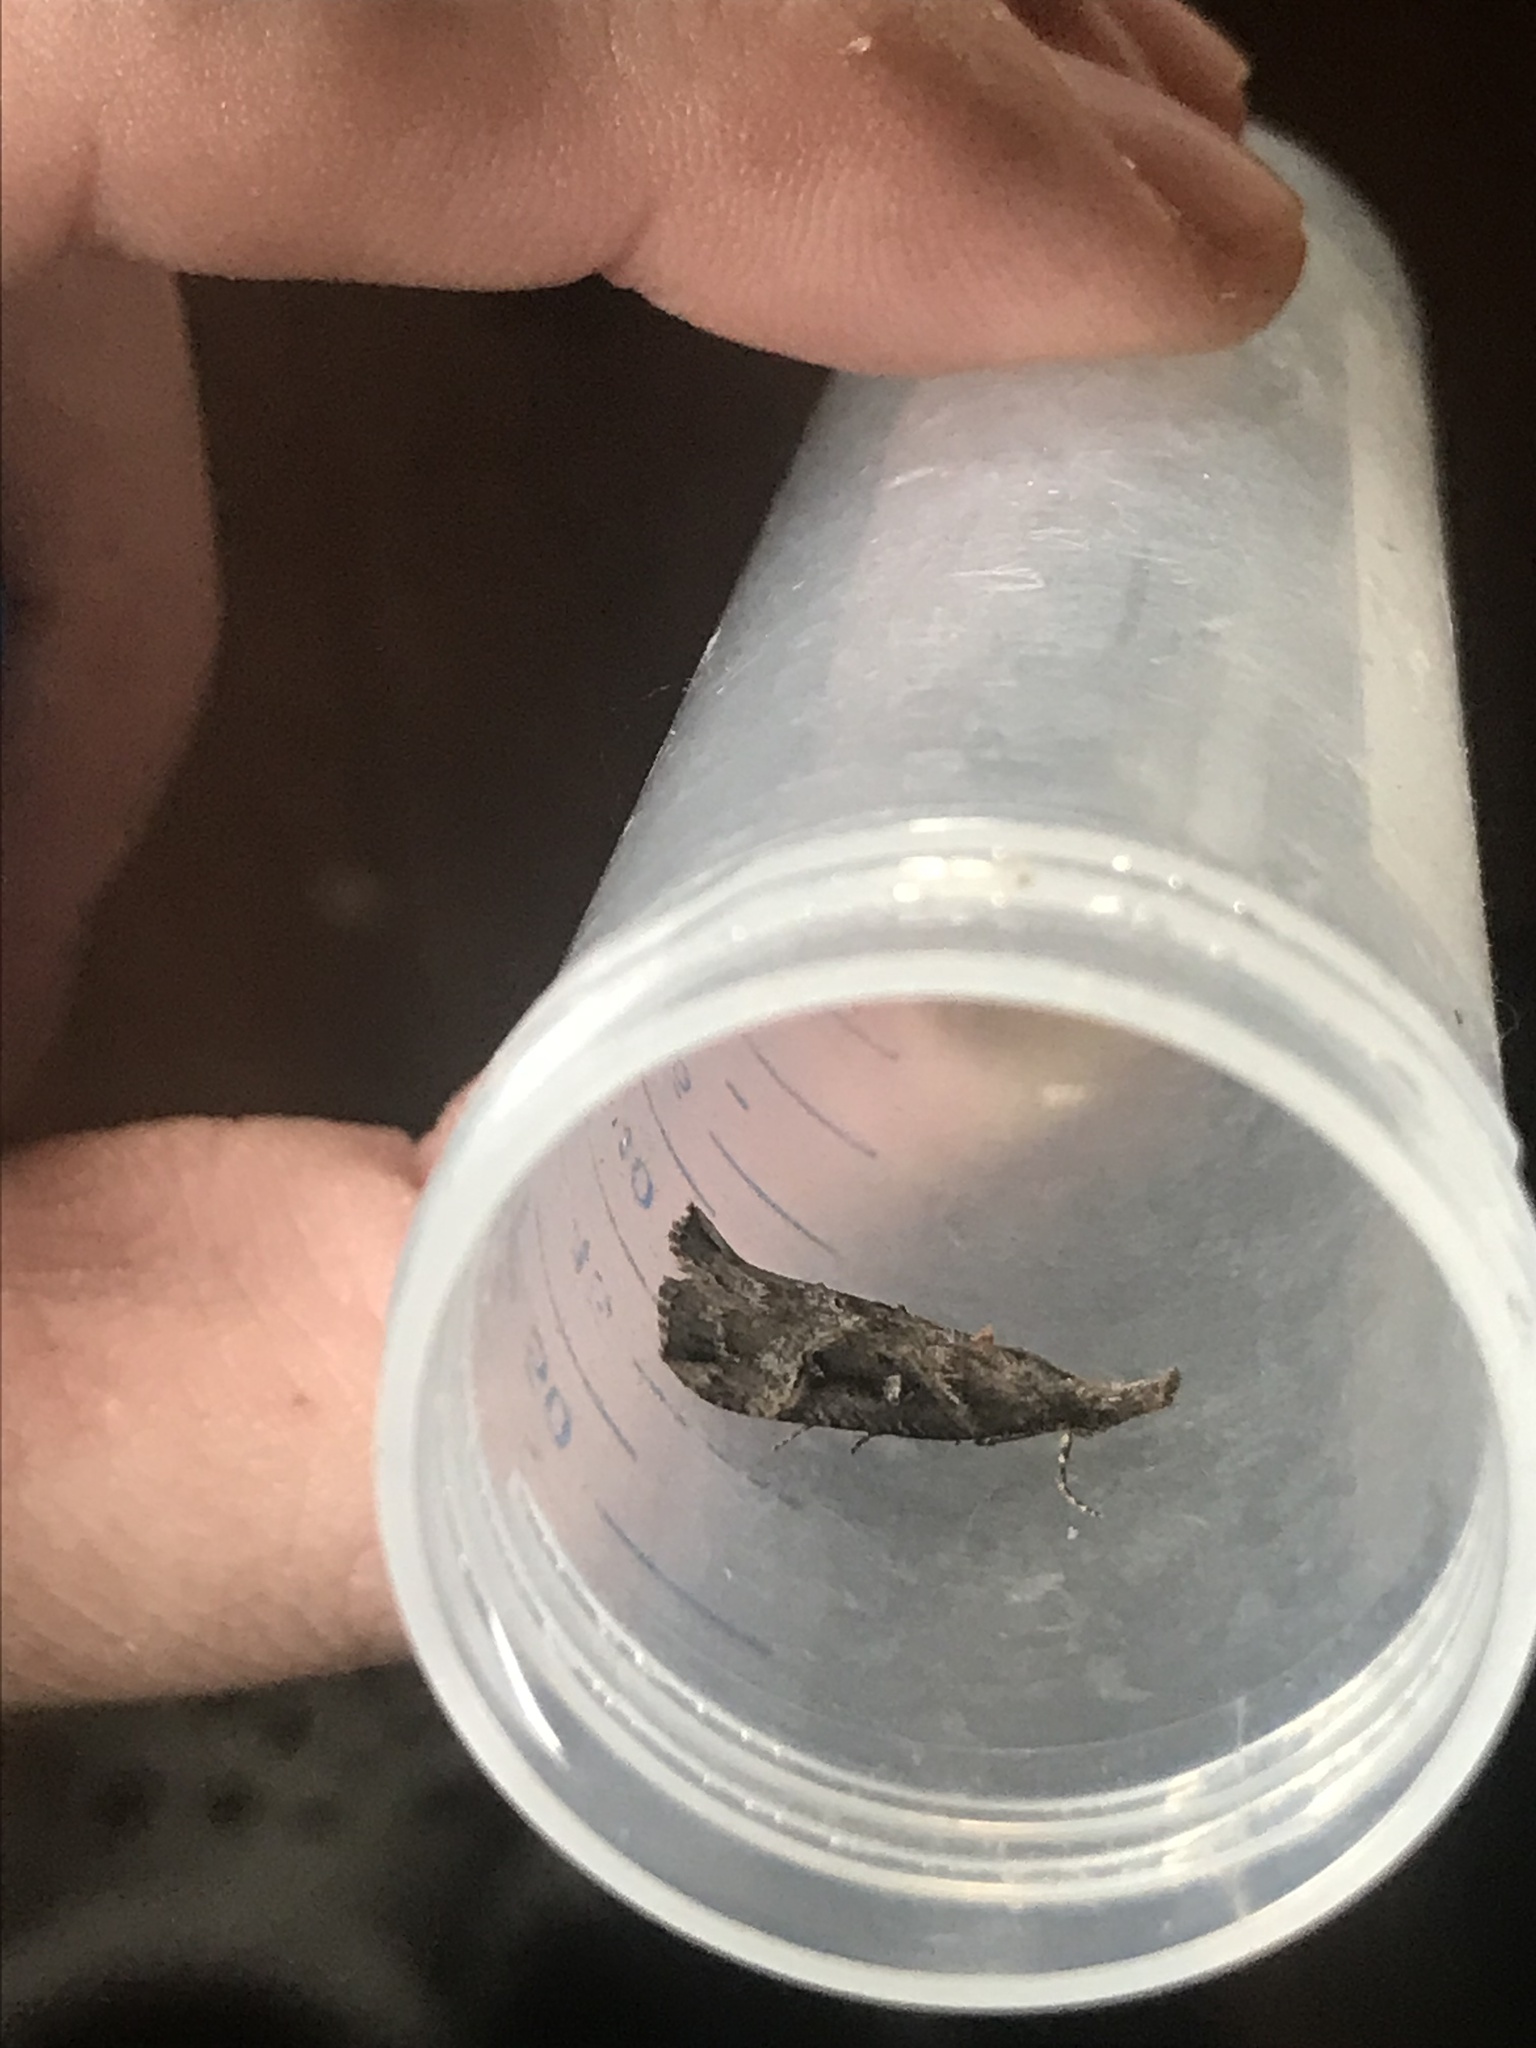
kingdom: Animalia
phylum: Arthropoda
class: Insecta
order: Lepidoptera
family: Erebidae
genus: Hypena
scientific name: Hypena rostralis
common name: Buttoned snout
